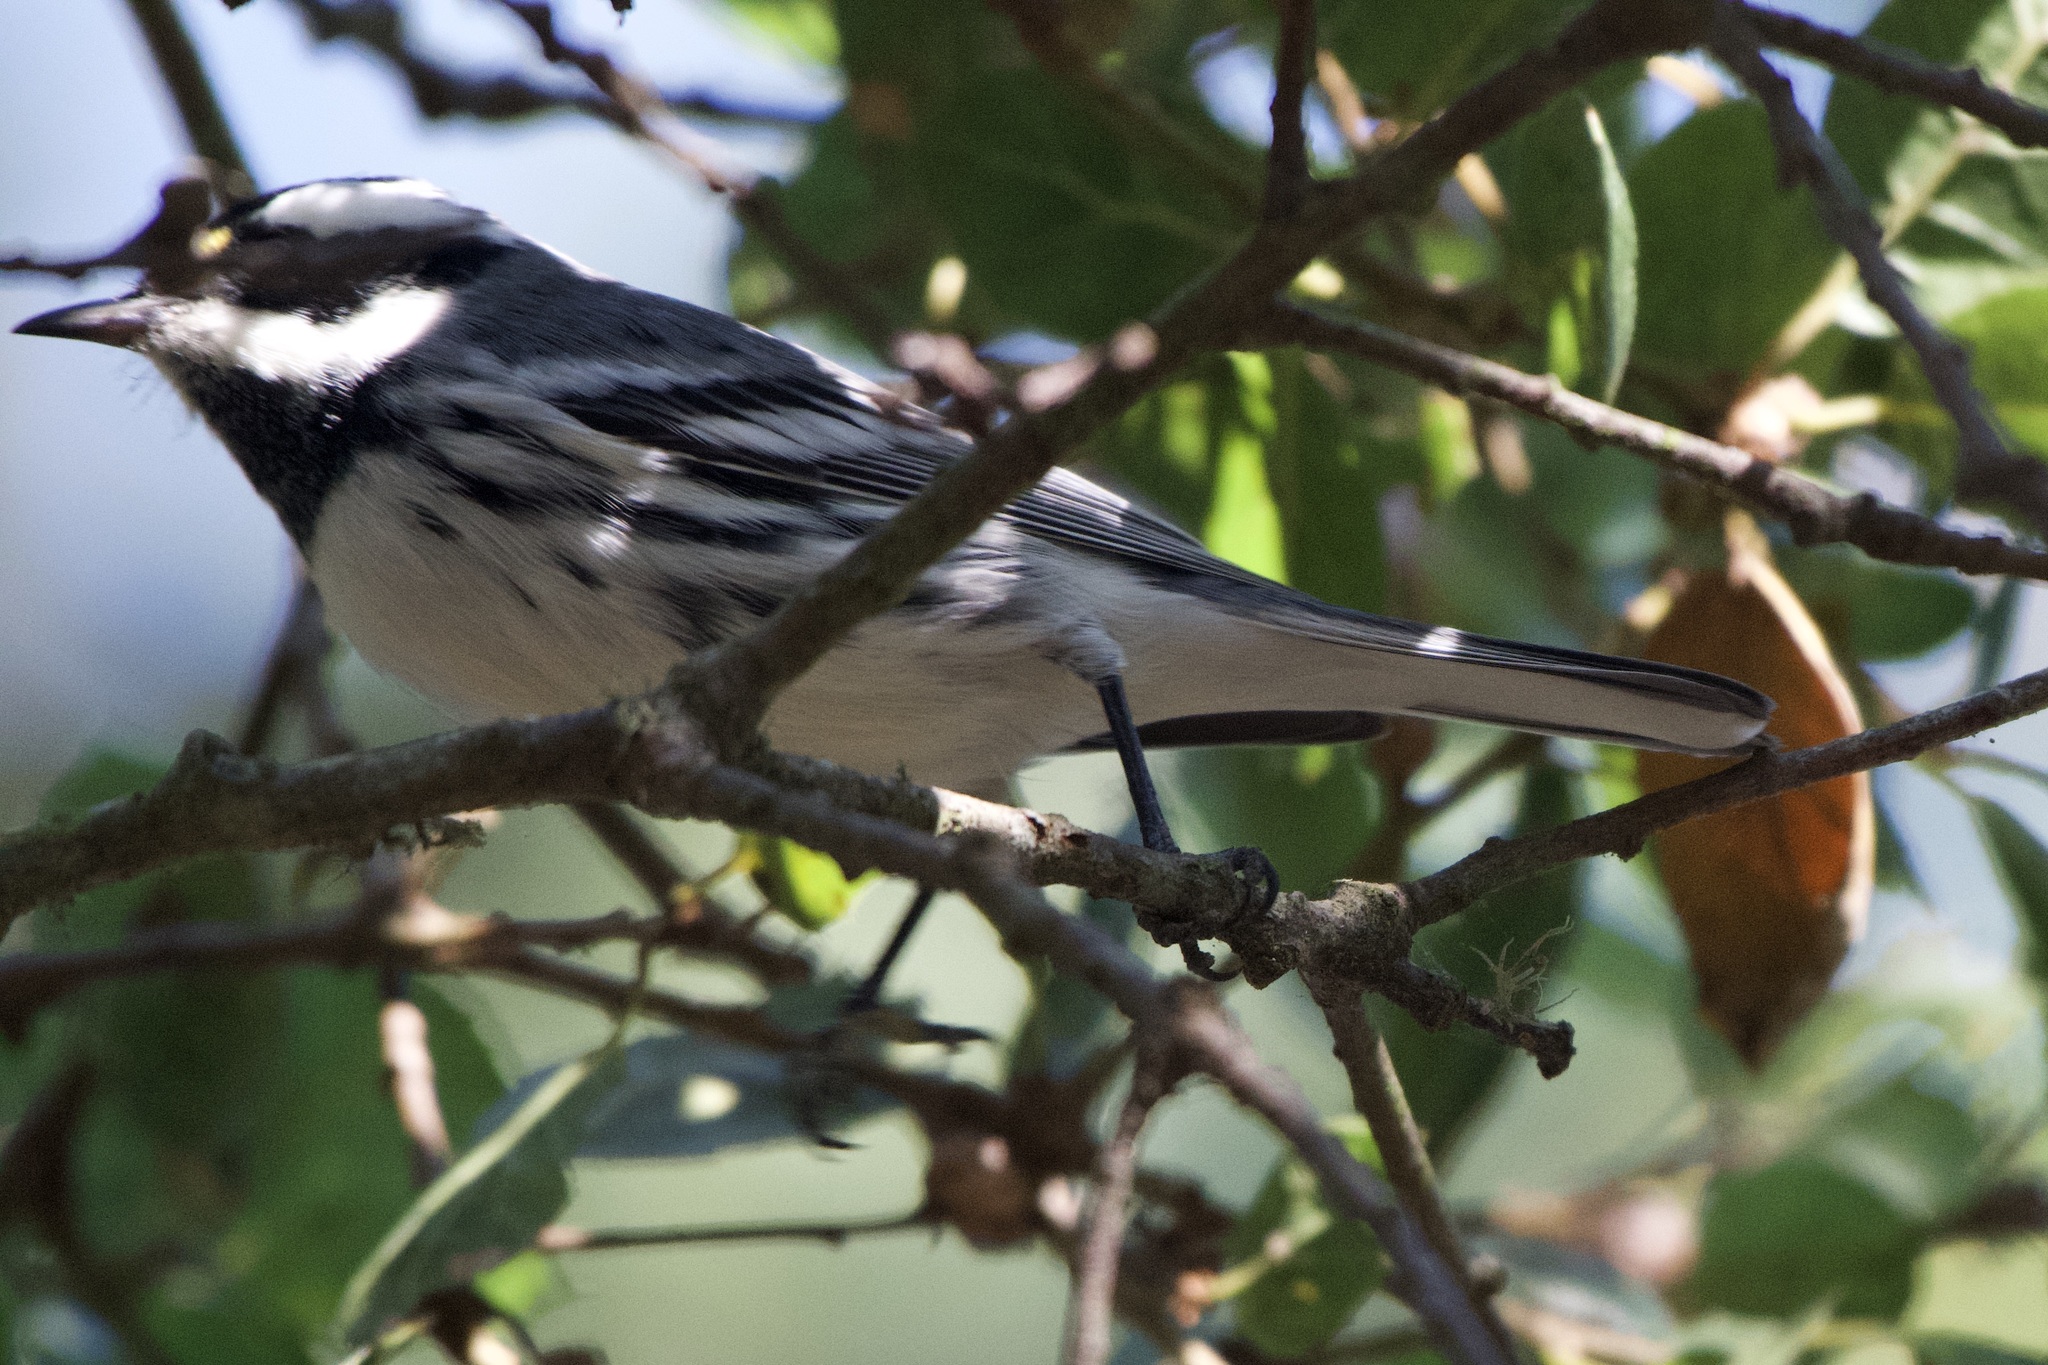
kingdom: Animalia
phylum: Chordata
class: Aves
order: Passeriformes
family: Parulidae
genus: Setophaga
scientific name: Setophaga nigrescens
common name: Black-throated gray warbler
